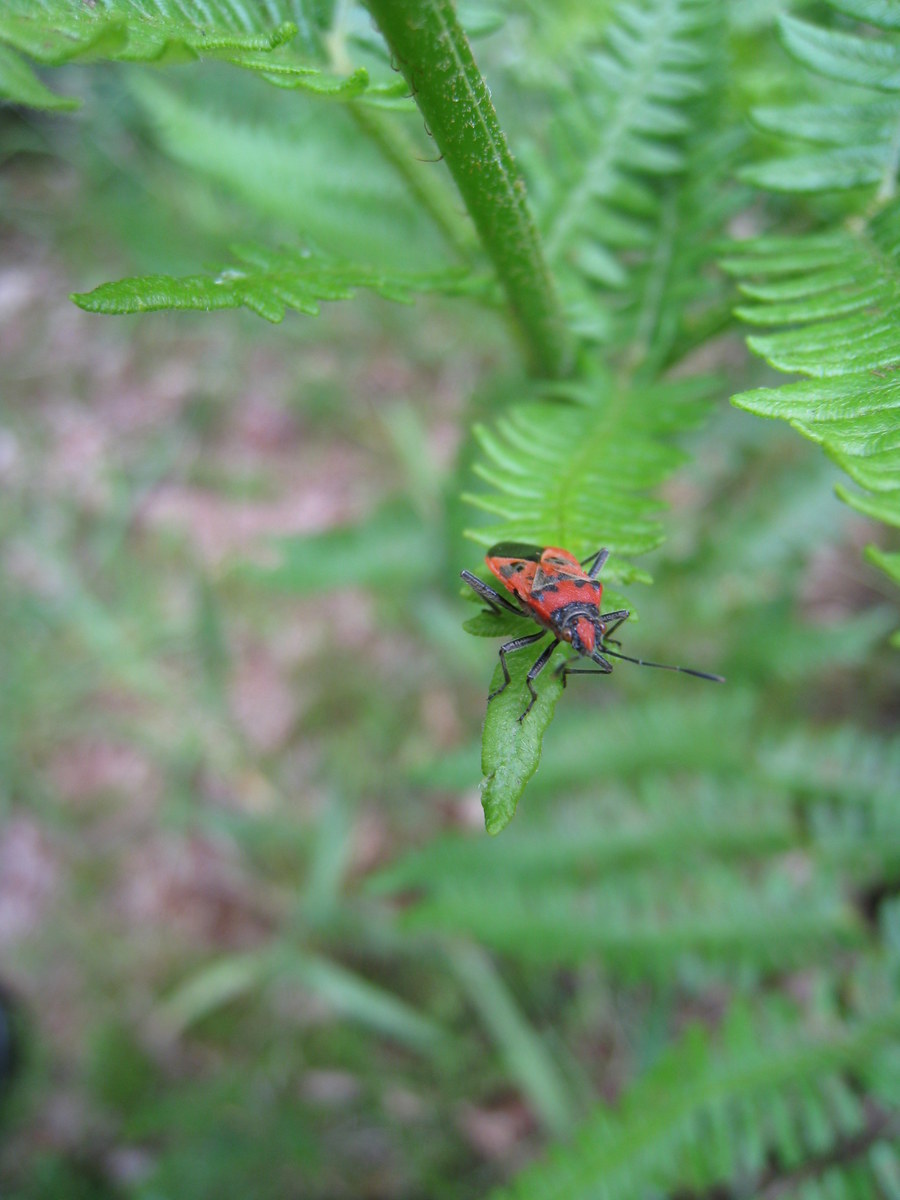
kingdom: Animalia
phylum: Arthropoda
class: Insecta
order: Hemiptera
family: Rhopalidae
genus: Corizus
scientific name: Corizus hyoscyami
